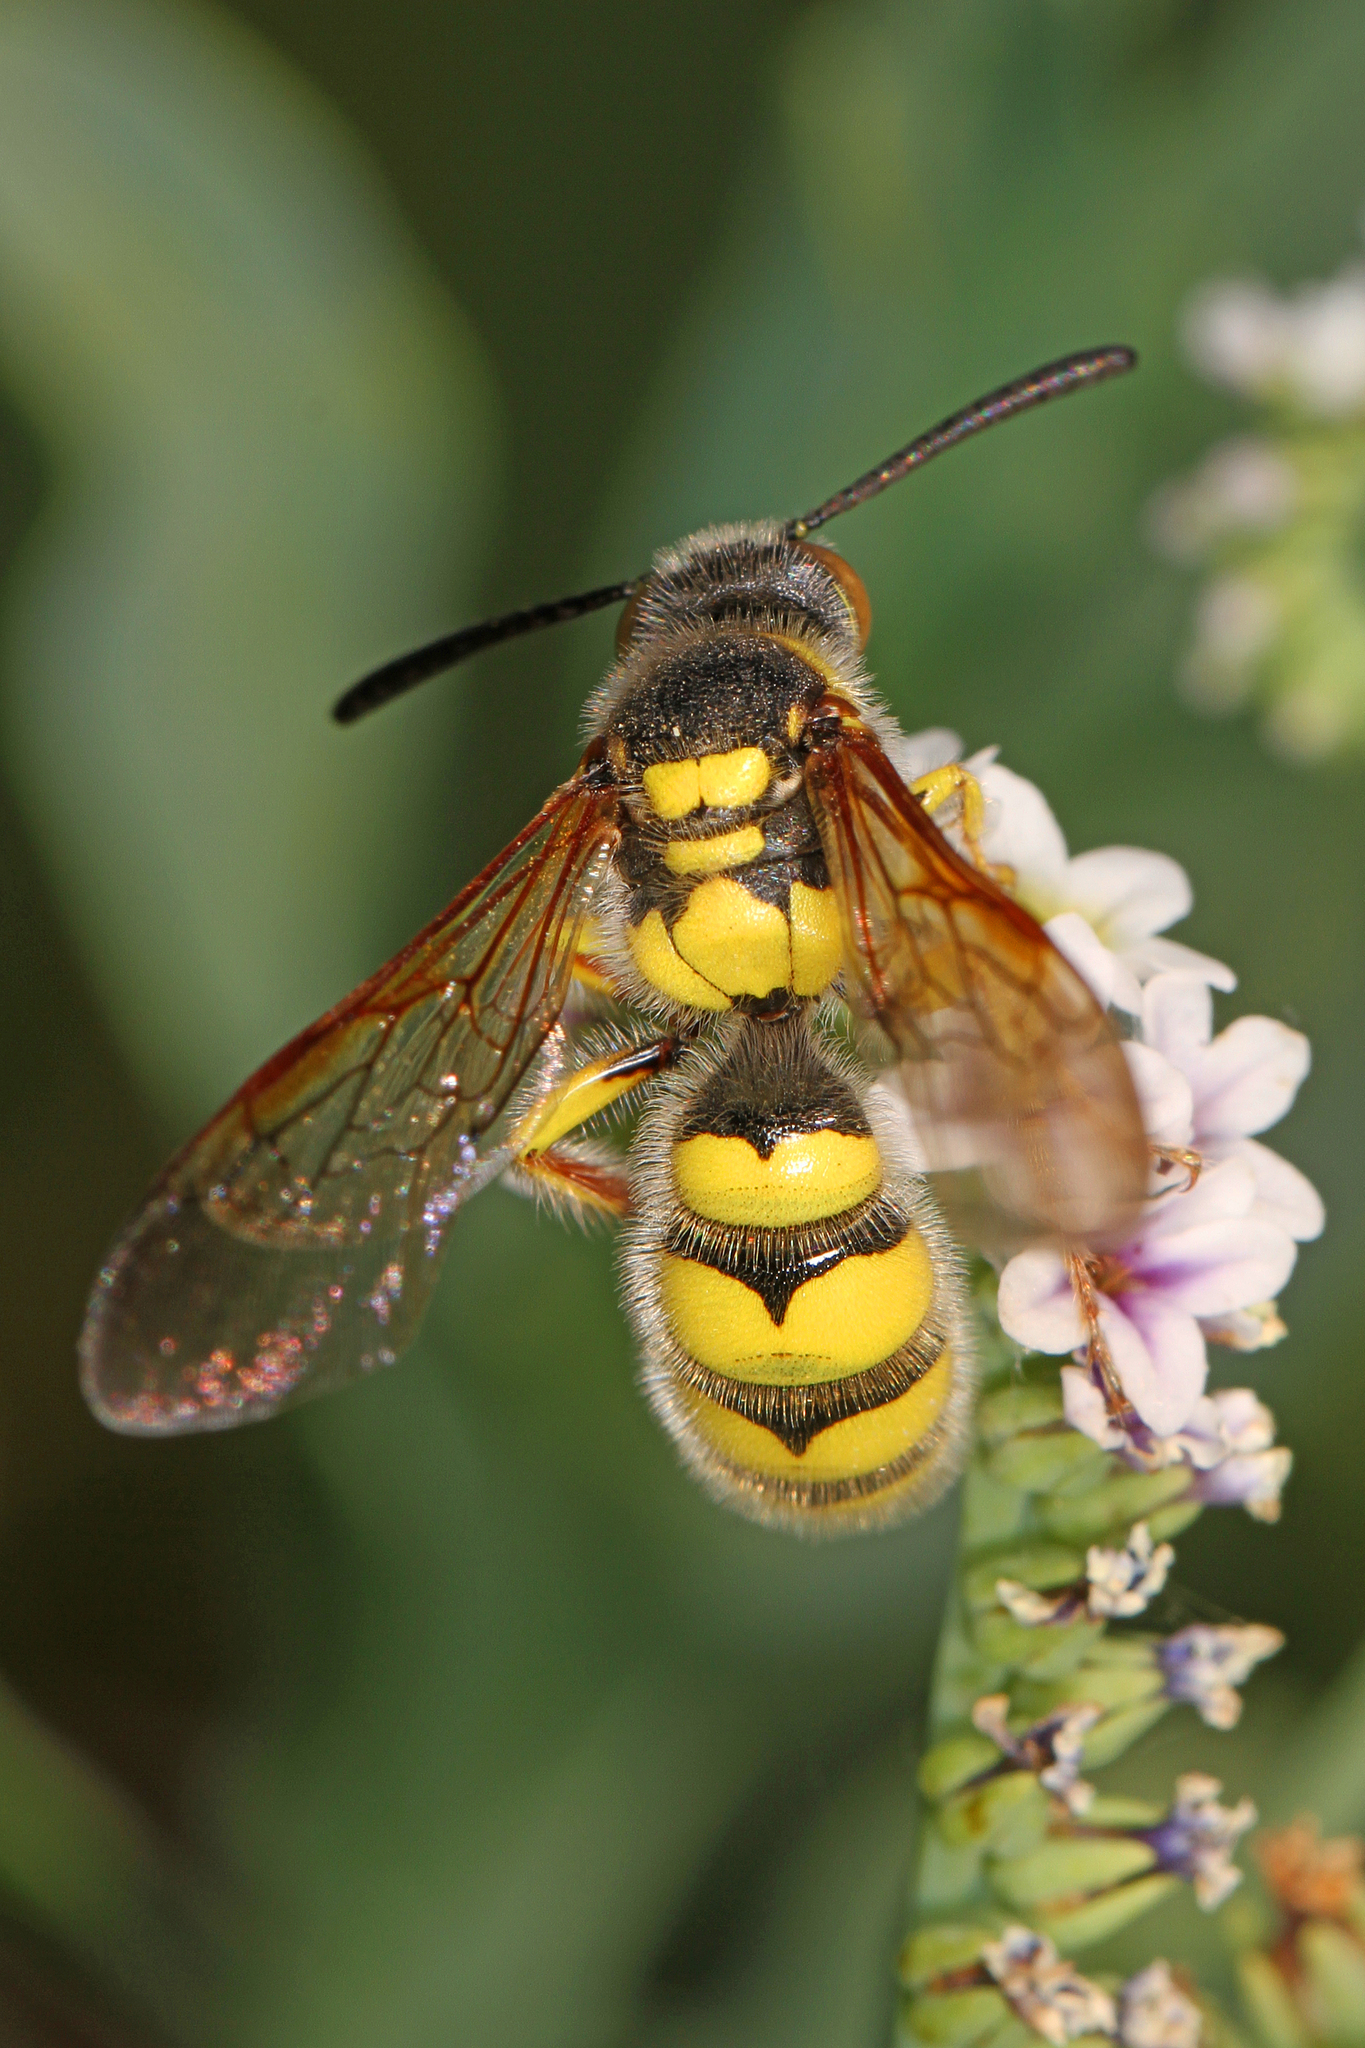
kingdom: Animalia
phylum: Arthropoda
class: Insecta
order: Hymenoptera
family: Sphecidae
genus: Crioscolia
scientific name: Crioscolia
